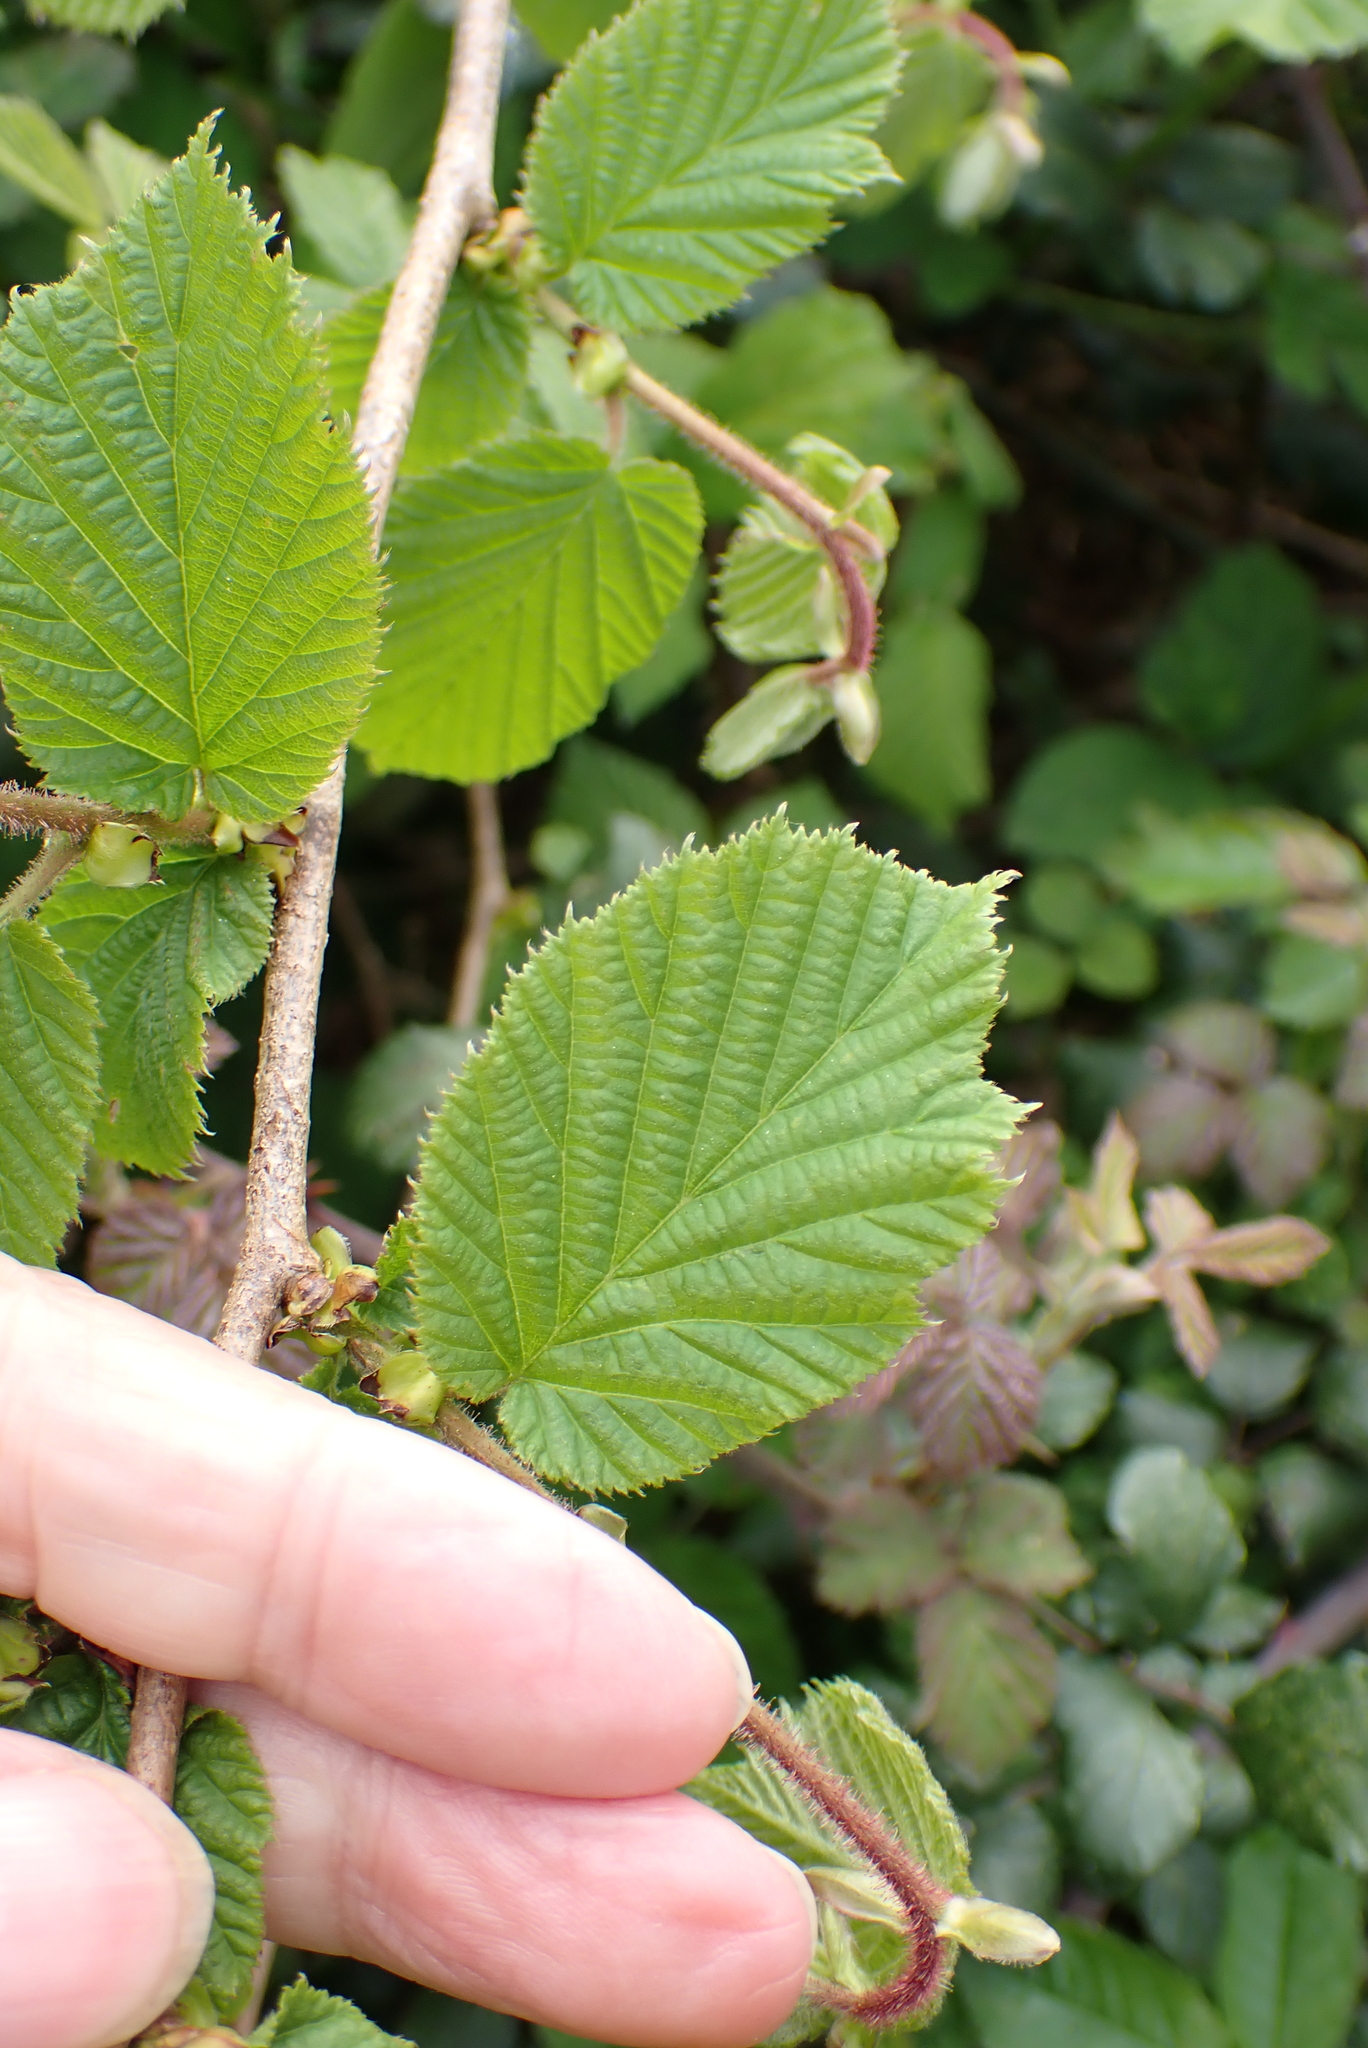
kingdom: Plantae
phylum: Tracheophyta
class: Magnoliopsida
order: Fagales
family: Betulaceae
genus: Corylus
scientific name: Corylus avellana
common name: European hazel
